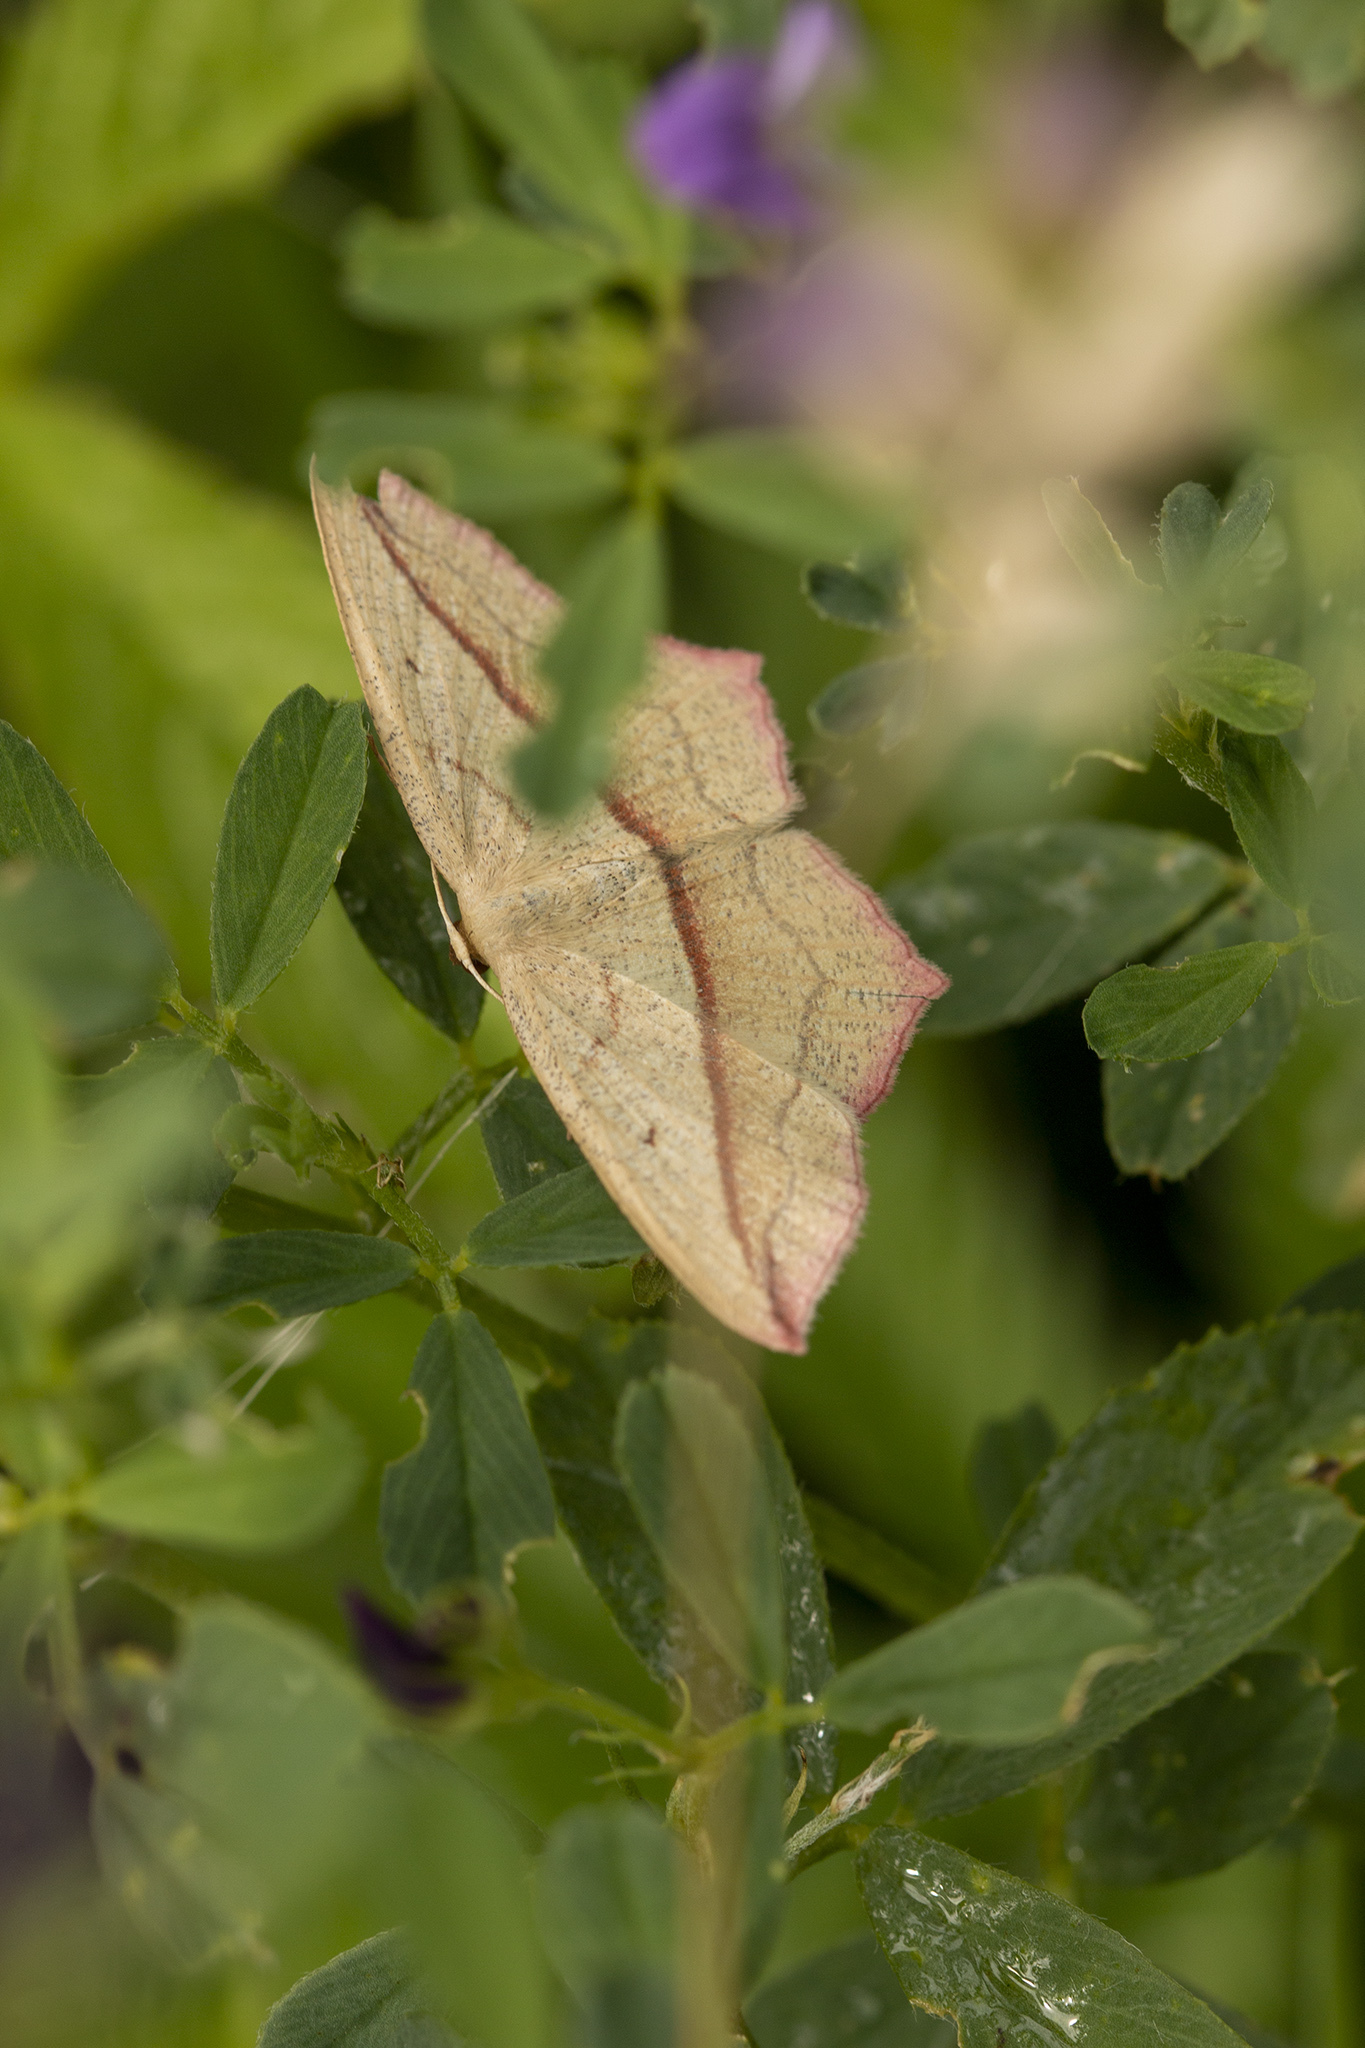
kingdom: Animalia
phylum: Arthropoda
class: Insecta
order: Lepidoptera
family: Geometridae
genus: Timandra
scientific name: Timandra comae
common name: Blood-vein
